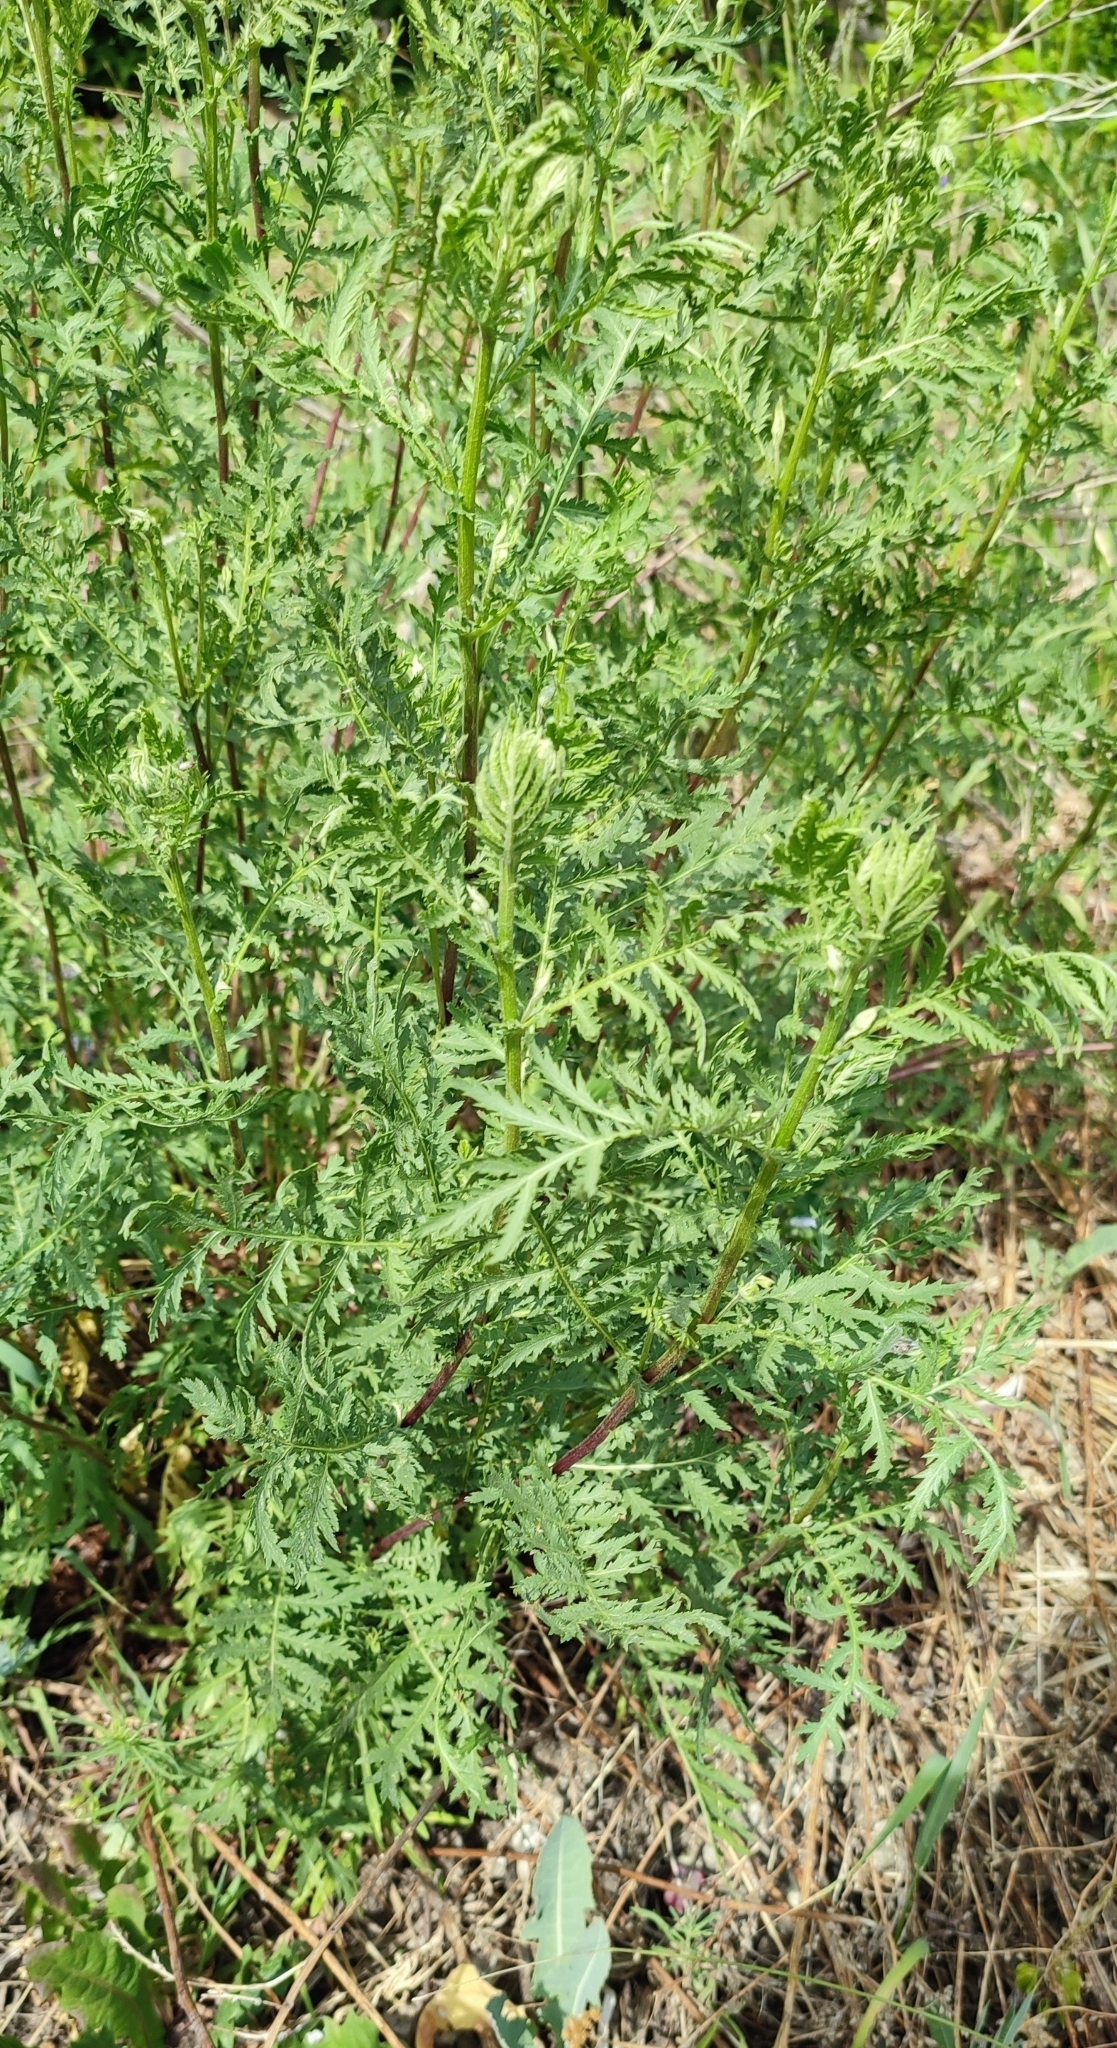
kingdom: Plantae
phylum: Tracheophyta
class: Magnoliopsida
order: Asterales
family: Asteraceae
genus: Tanacetum
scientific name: Tanacetum vulgare
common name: Common tansy
